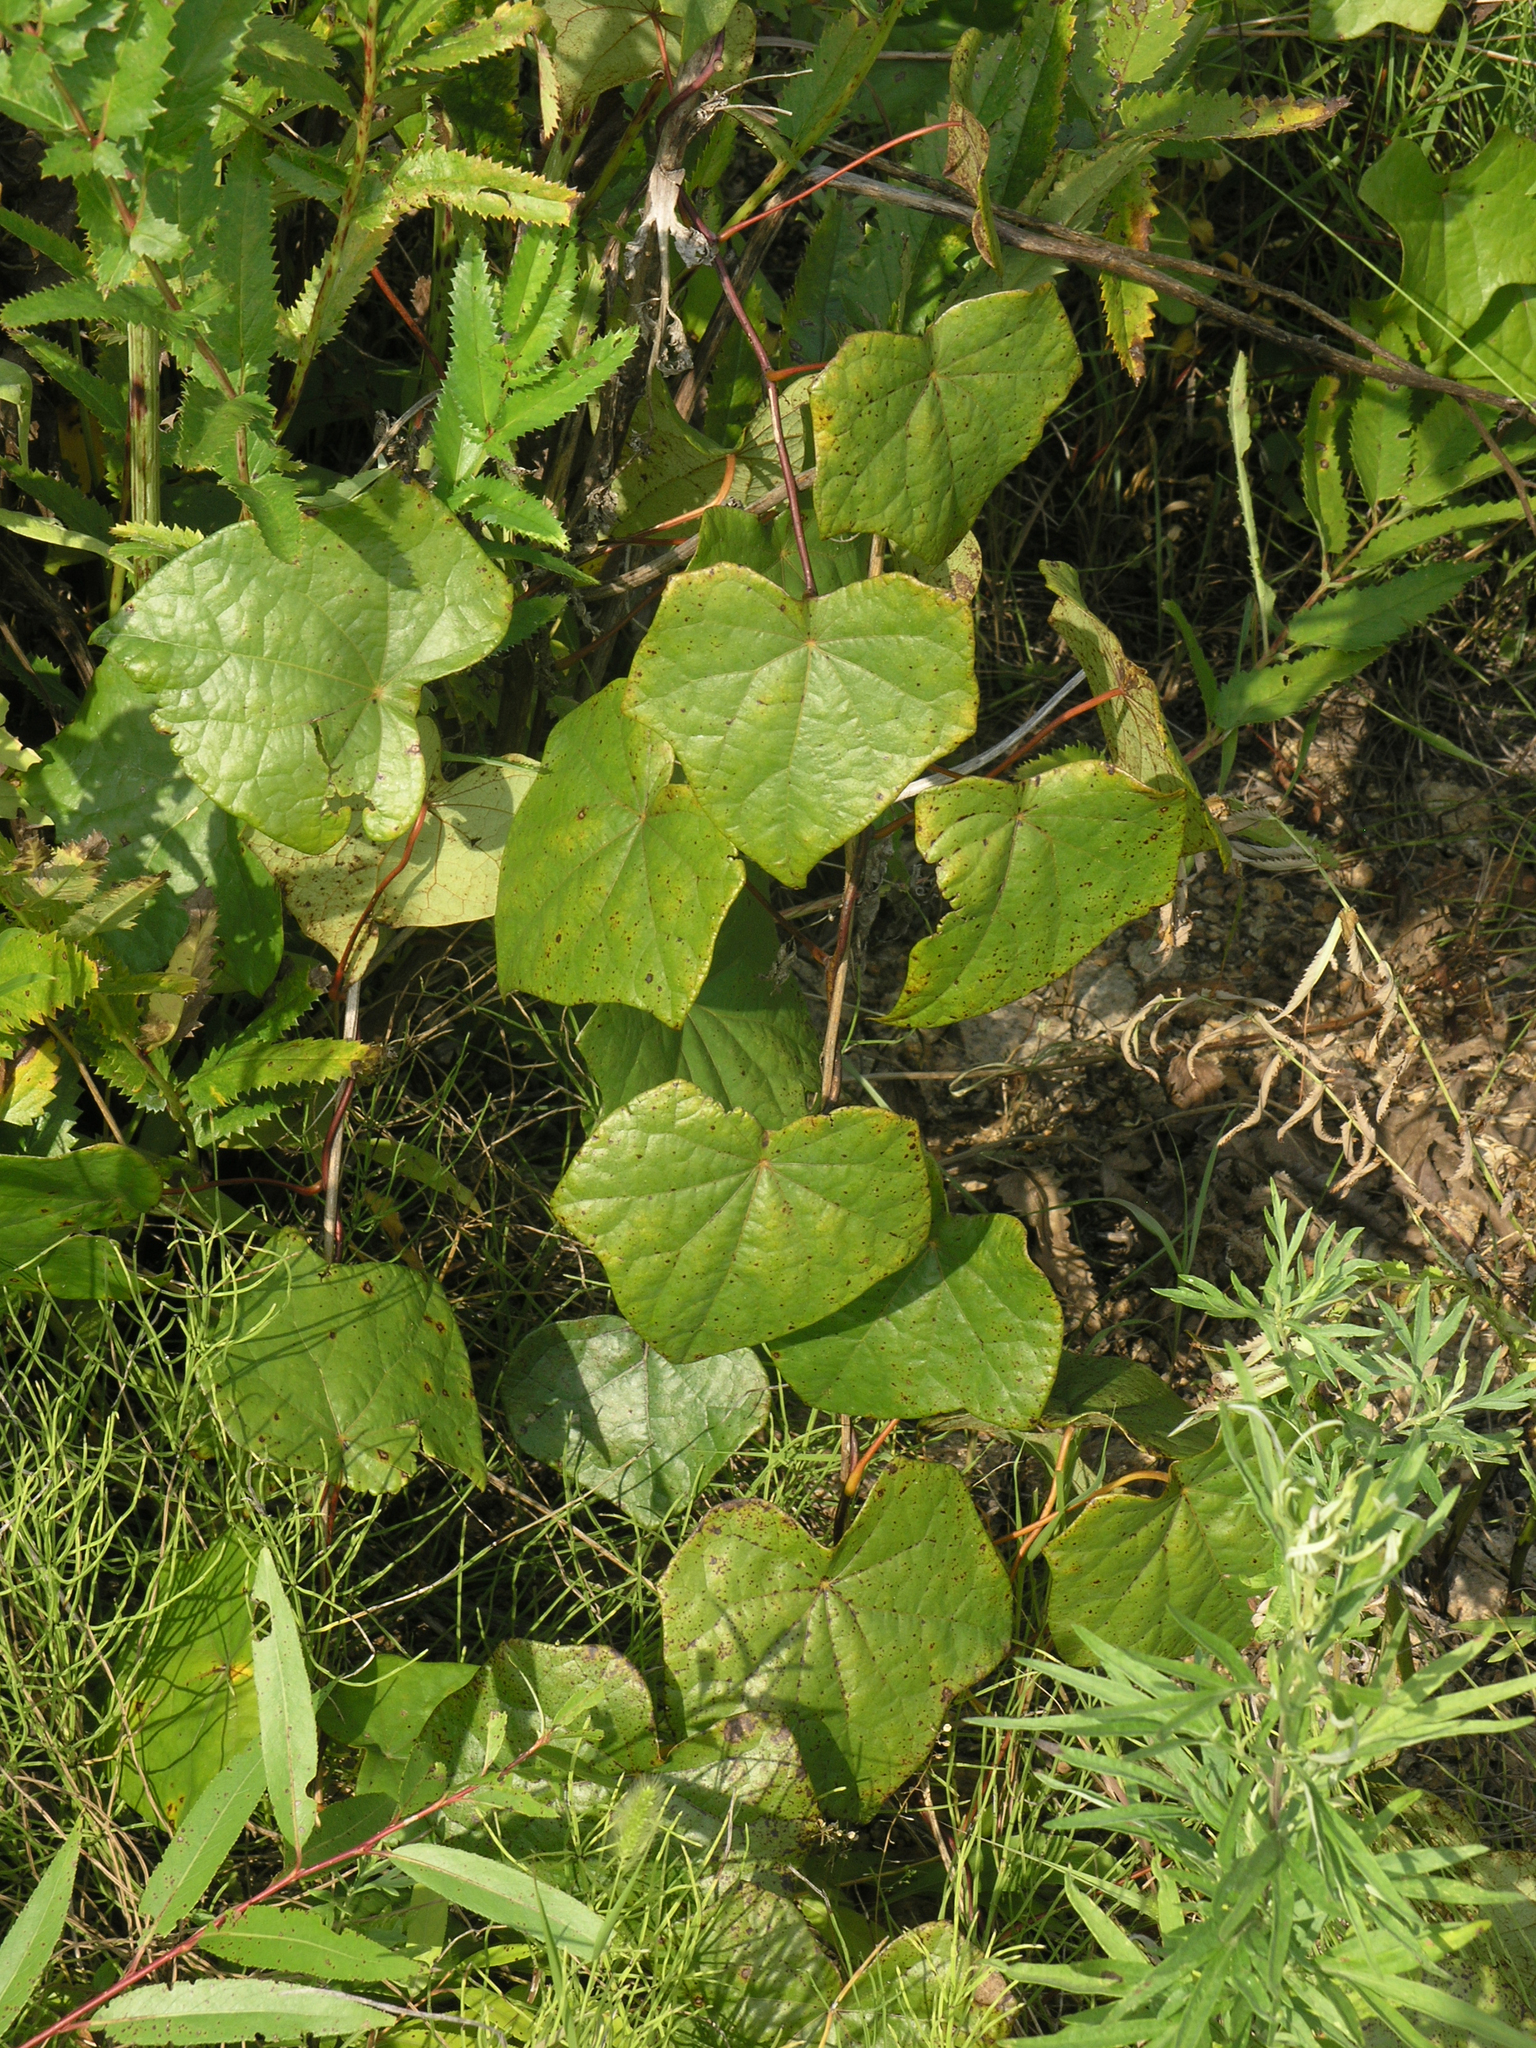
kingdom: Plantae
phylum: Tracheophyta
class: Magnoliopsida
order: Ranunculales
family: Menispermaceae
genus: Menispermum
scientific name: Menispermum dauricum
